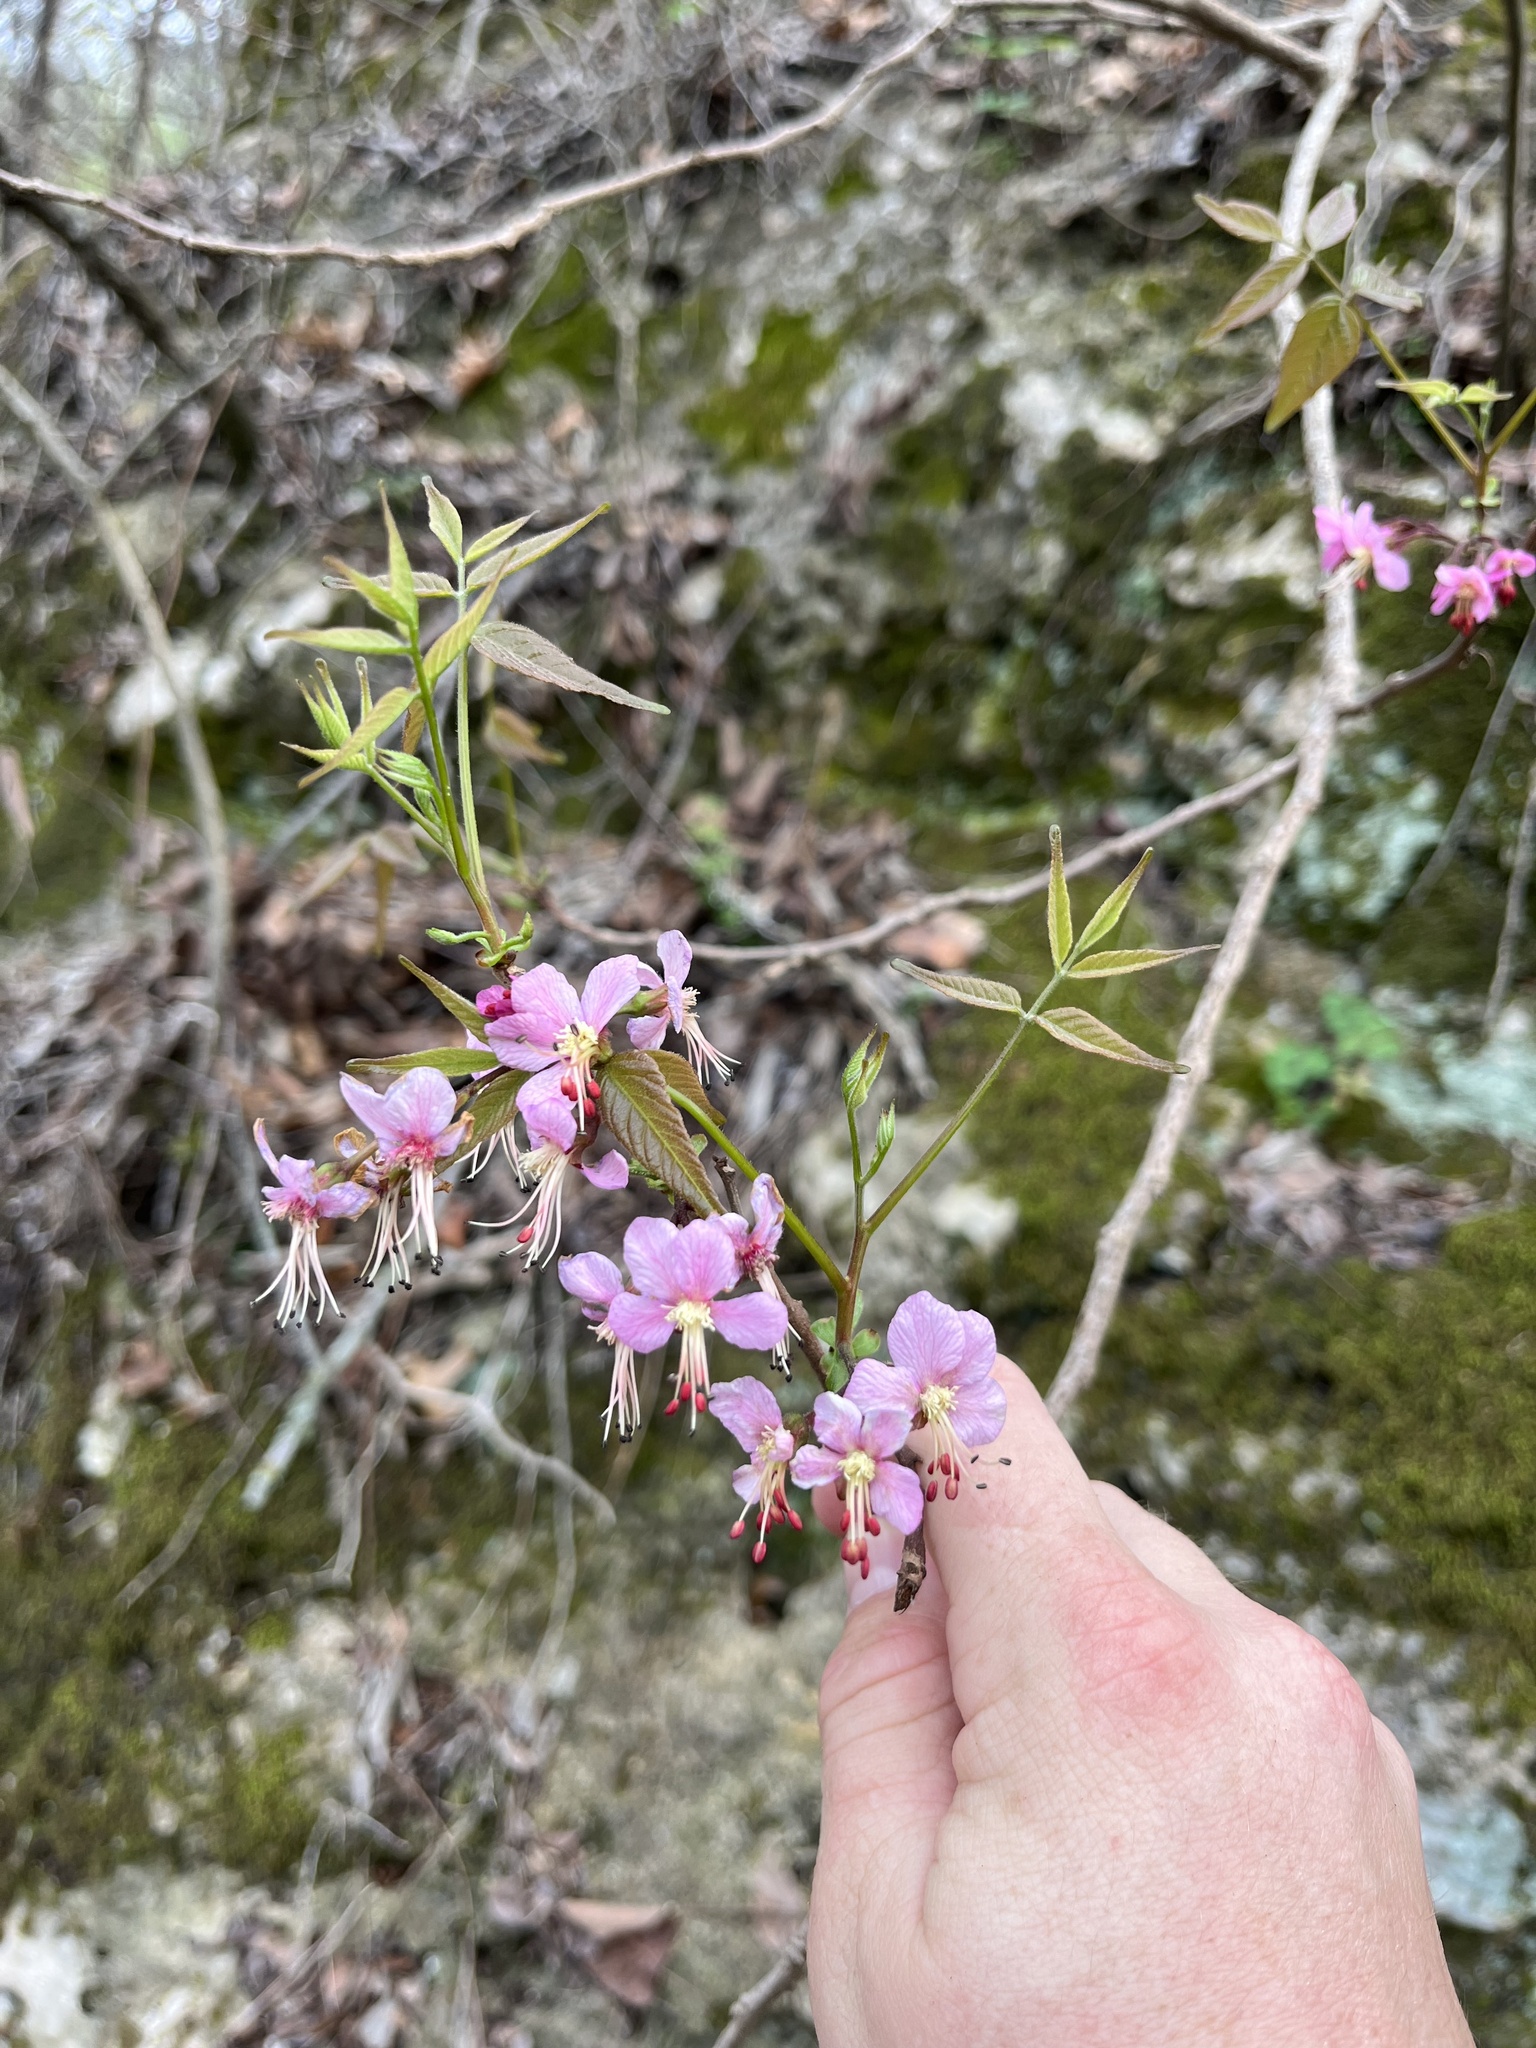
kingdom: Plantae
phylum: Tracheophyta
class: Magnoliopsida
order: Sapindales
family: Sapindaceae
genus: Ungnadia
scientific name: Ungnadia speciosa
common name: Texas-buckeye
